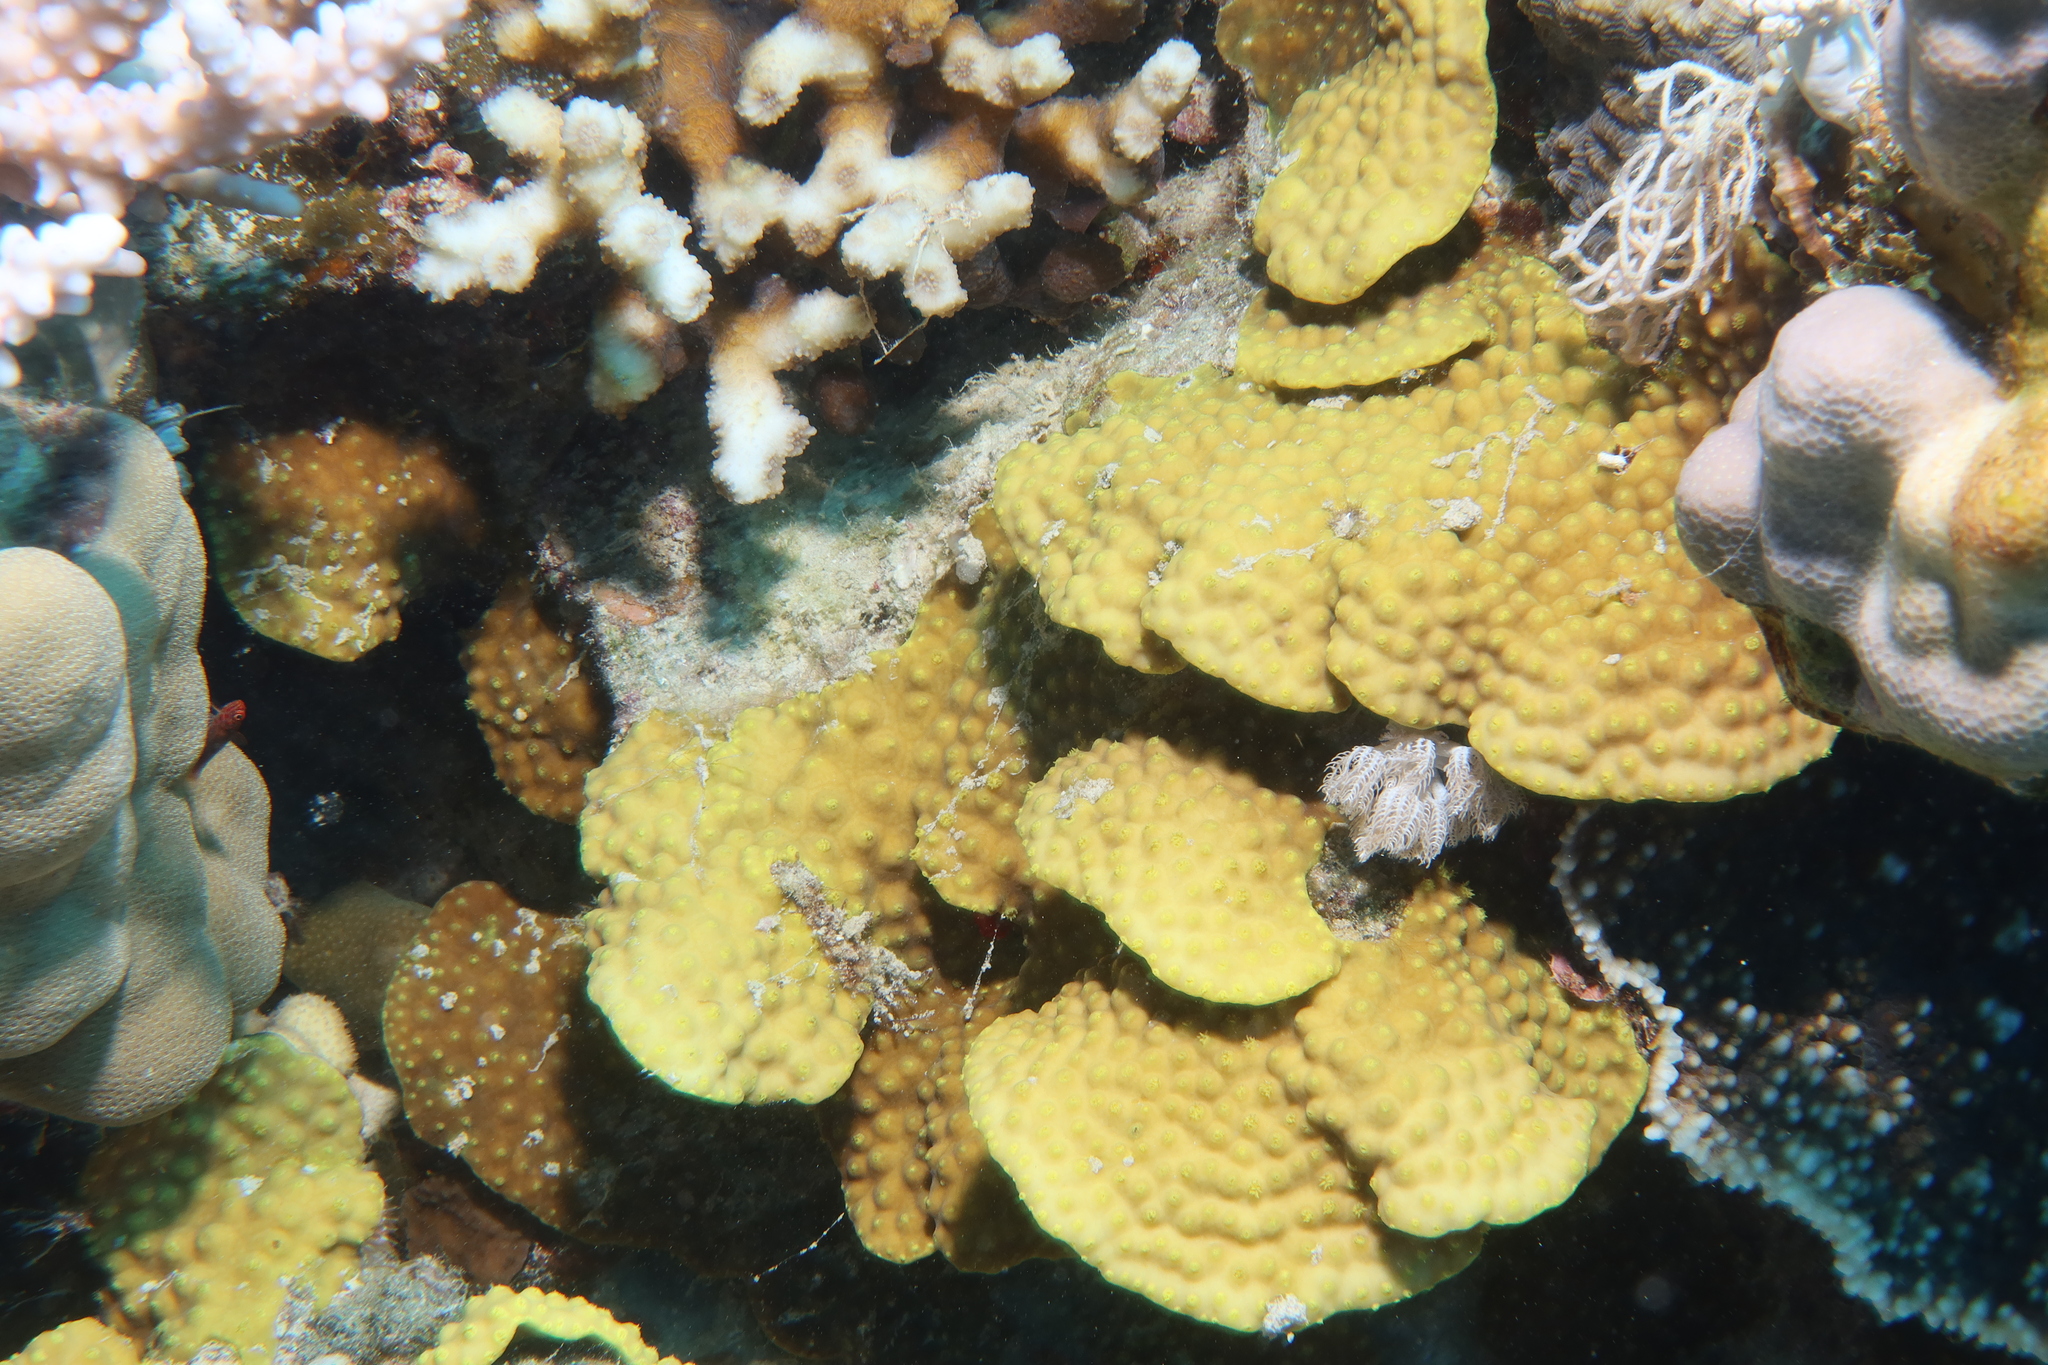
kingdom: Animalia
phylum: Cnidaria
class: Anthozoa
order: Scleractinia
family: Dendrophylliidae
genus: Turbinaria
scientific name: Turbinaria reniformis
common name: Disc coral
